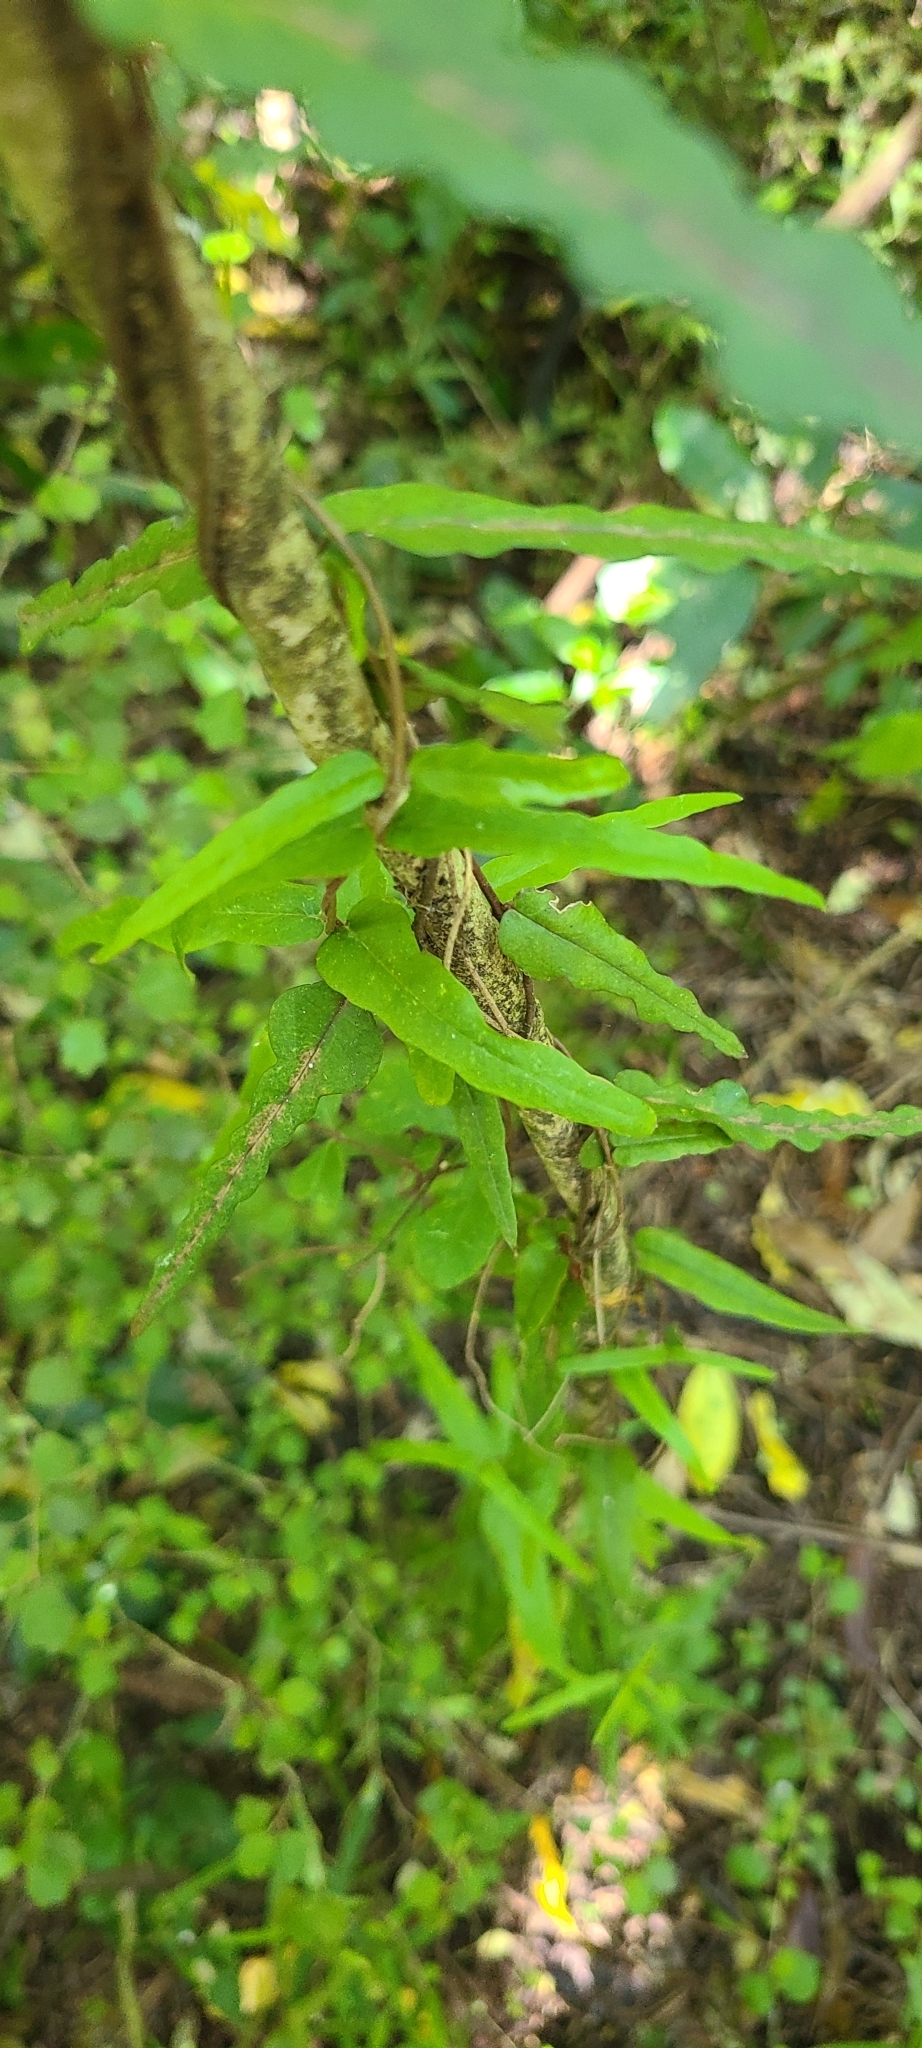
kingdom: Plantae
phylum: Tracheophyta
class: Magnoliopsida
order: Gentianales
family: Apocynaceae
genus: Parsonsia
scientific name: Parsonsia heterophylla
